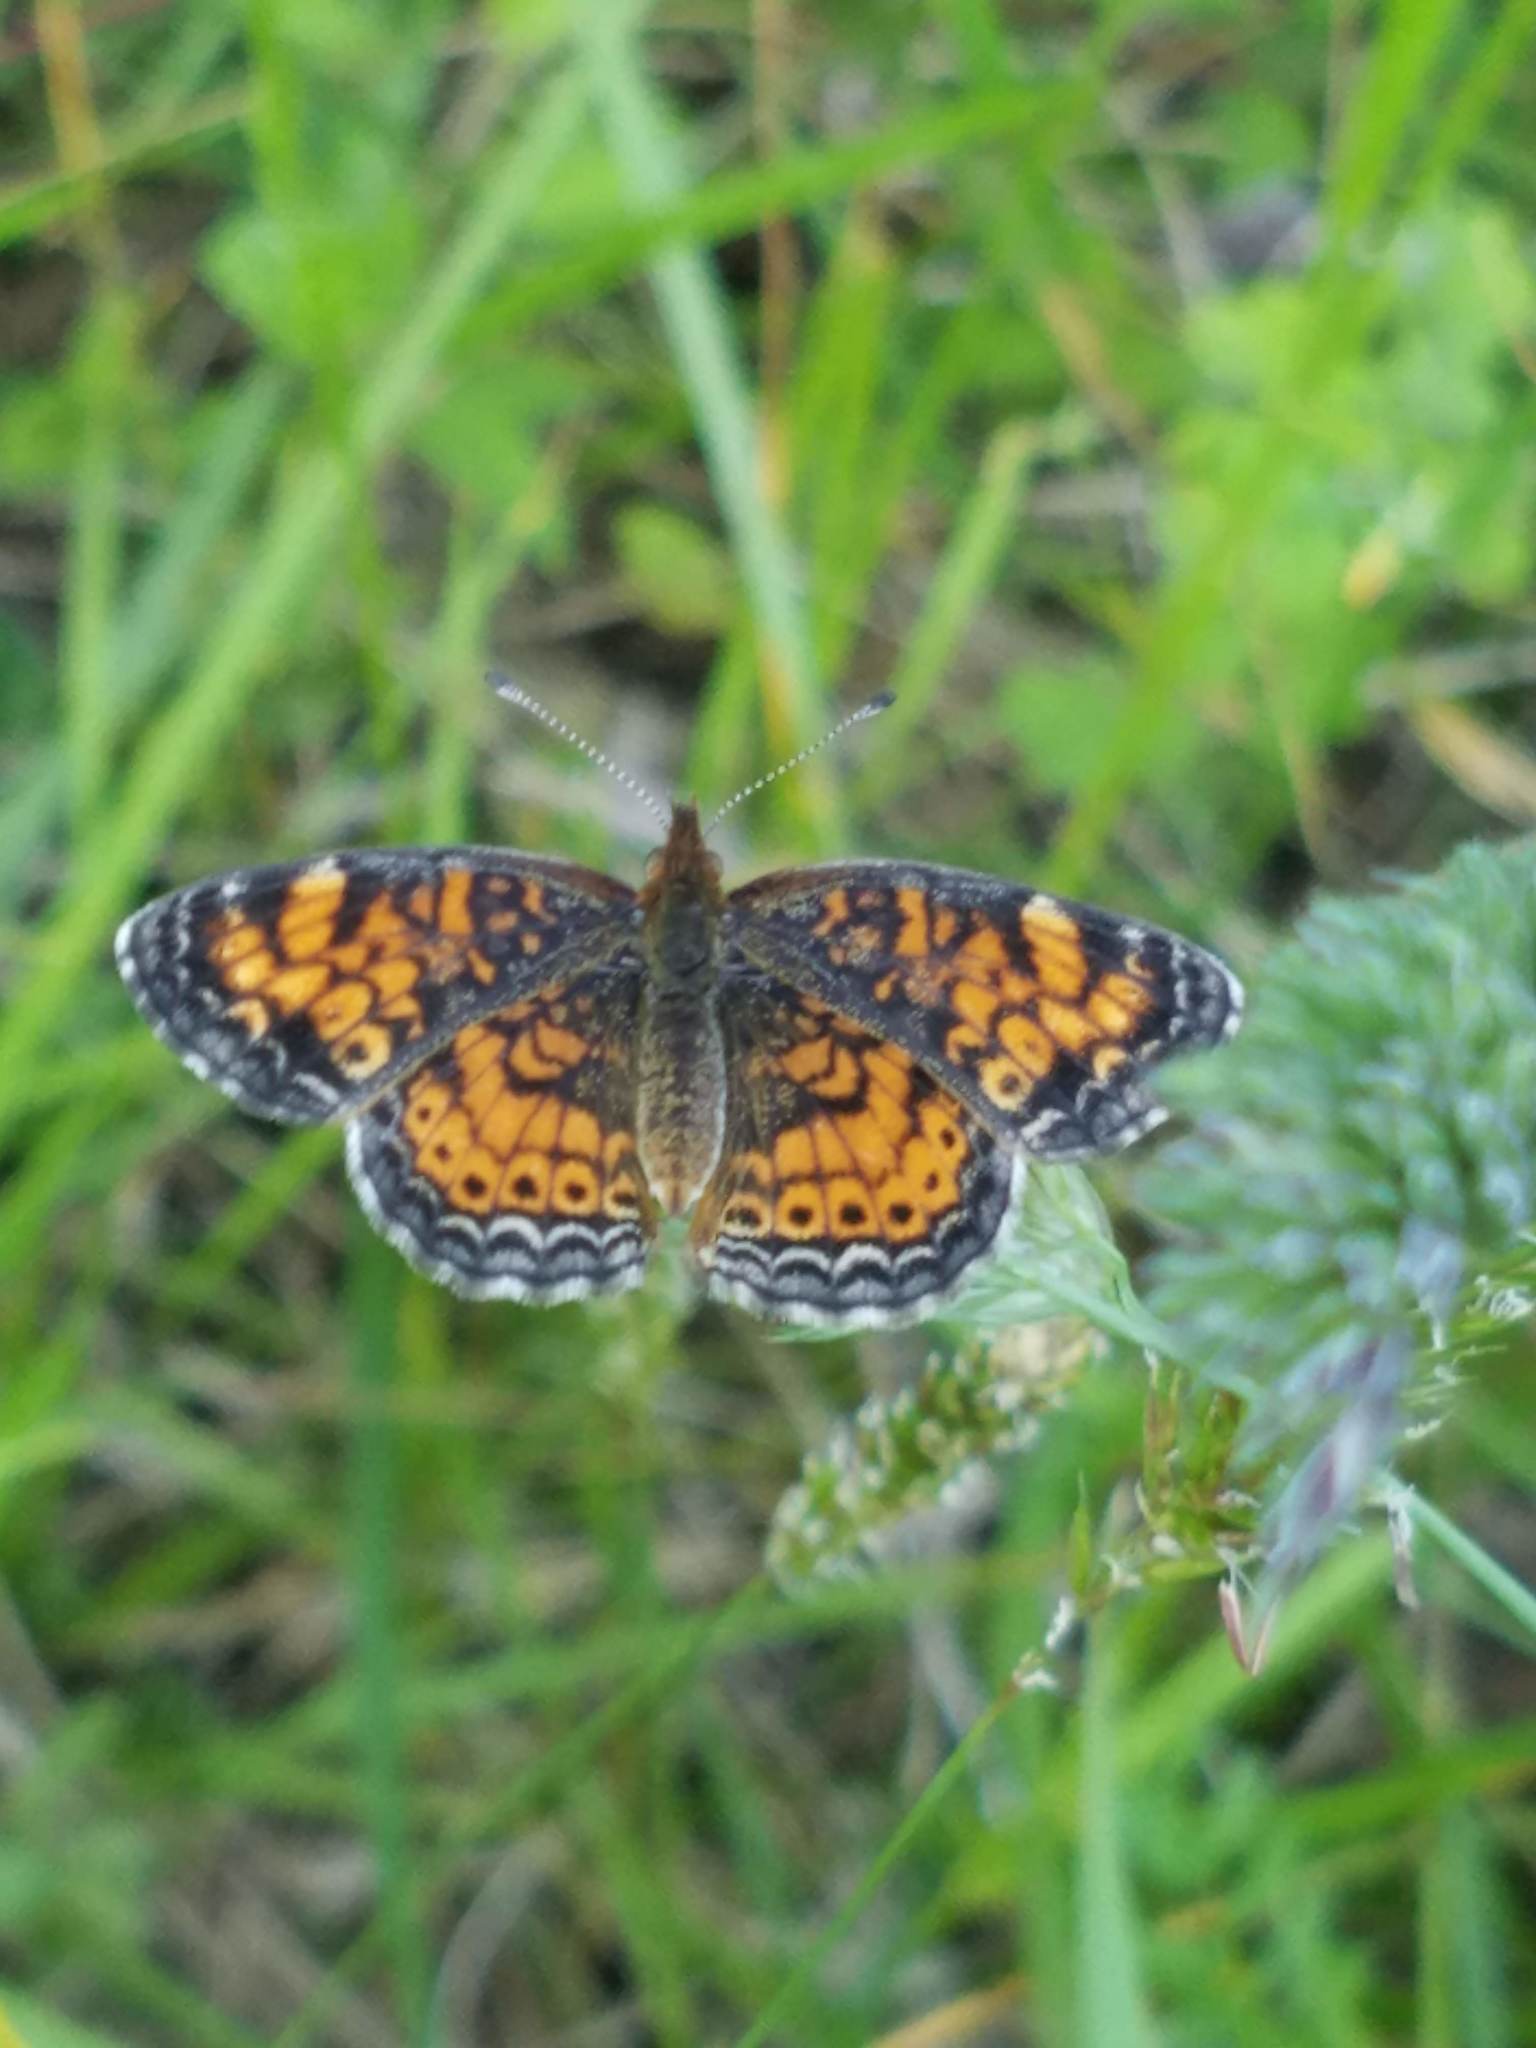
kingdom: Animalia
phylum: Arthropoda
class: Insecta
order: Lepidoptera
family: Nymphalidae
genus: Phyciodes
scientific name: Phyciodes tharos
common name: Pearl crescent
